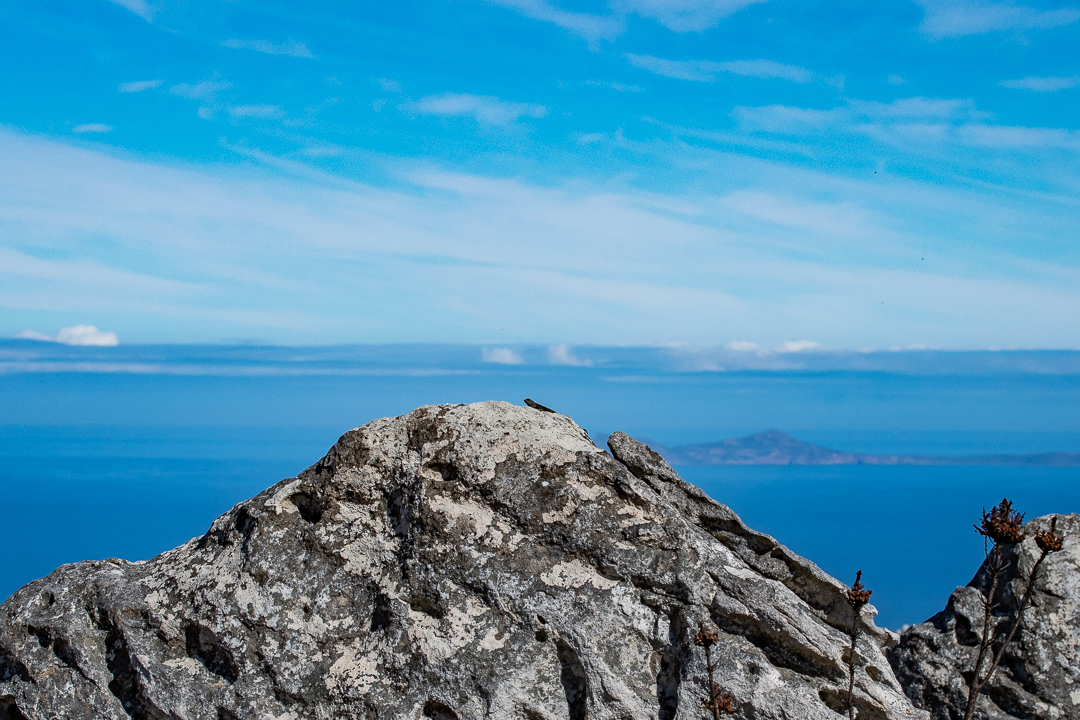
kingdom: Animalia
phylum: Chordata
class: Squamata
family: Agamidae
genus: Agama
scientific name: Agama atra
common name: Southern african rock agama
